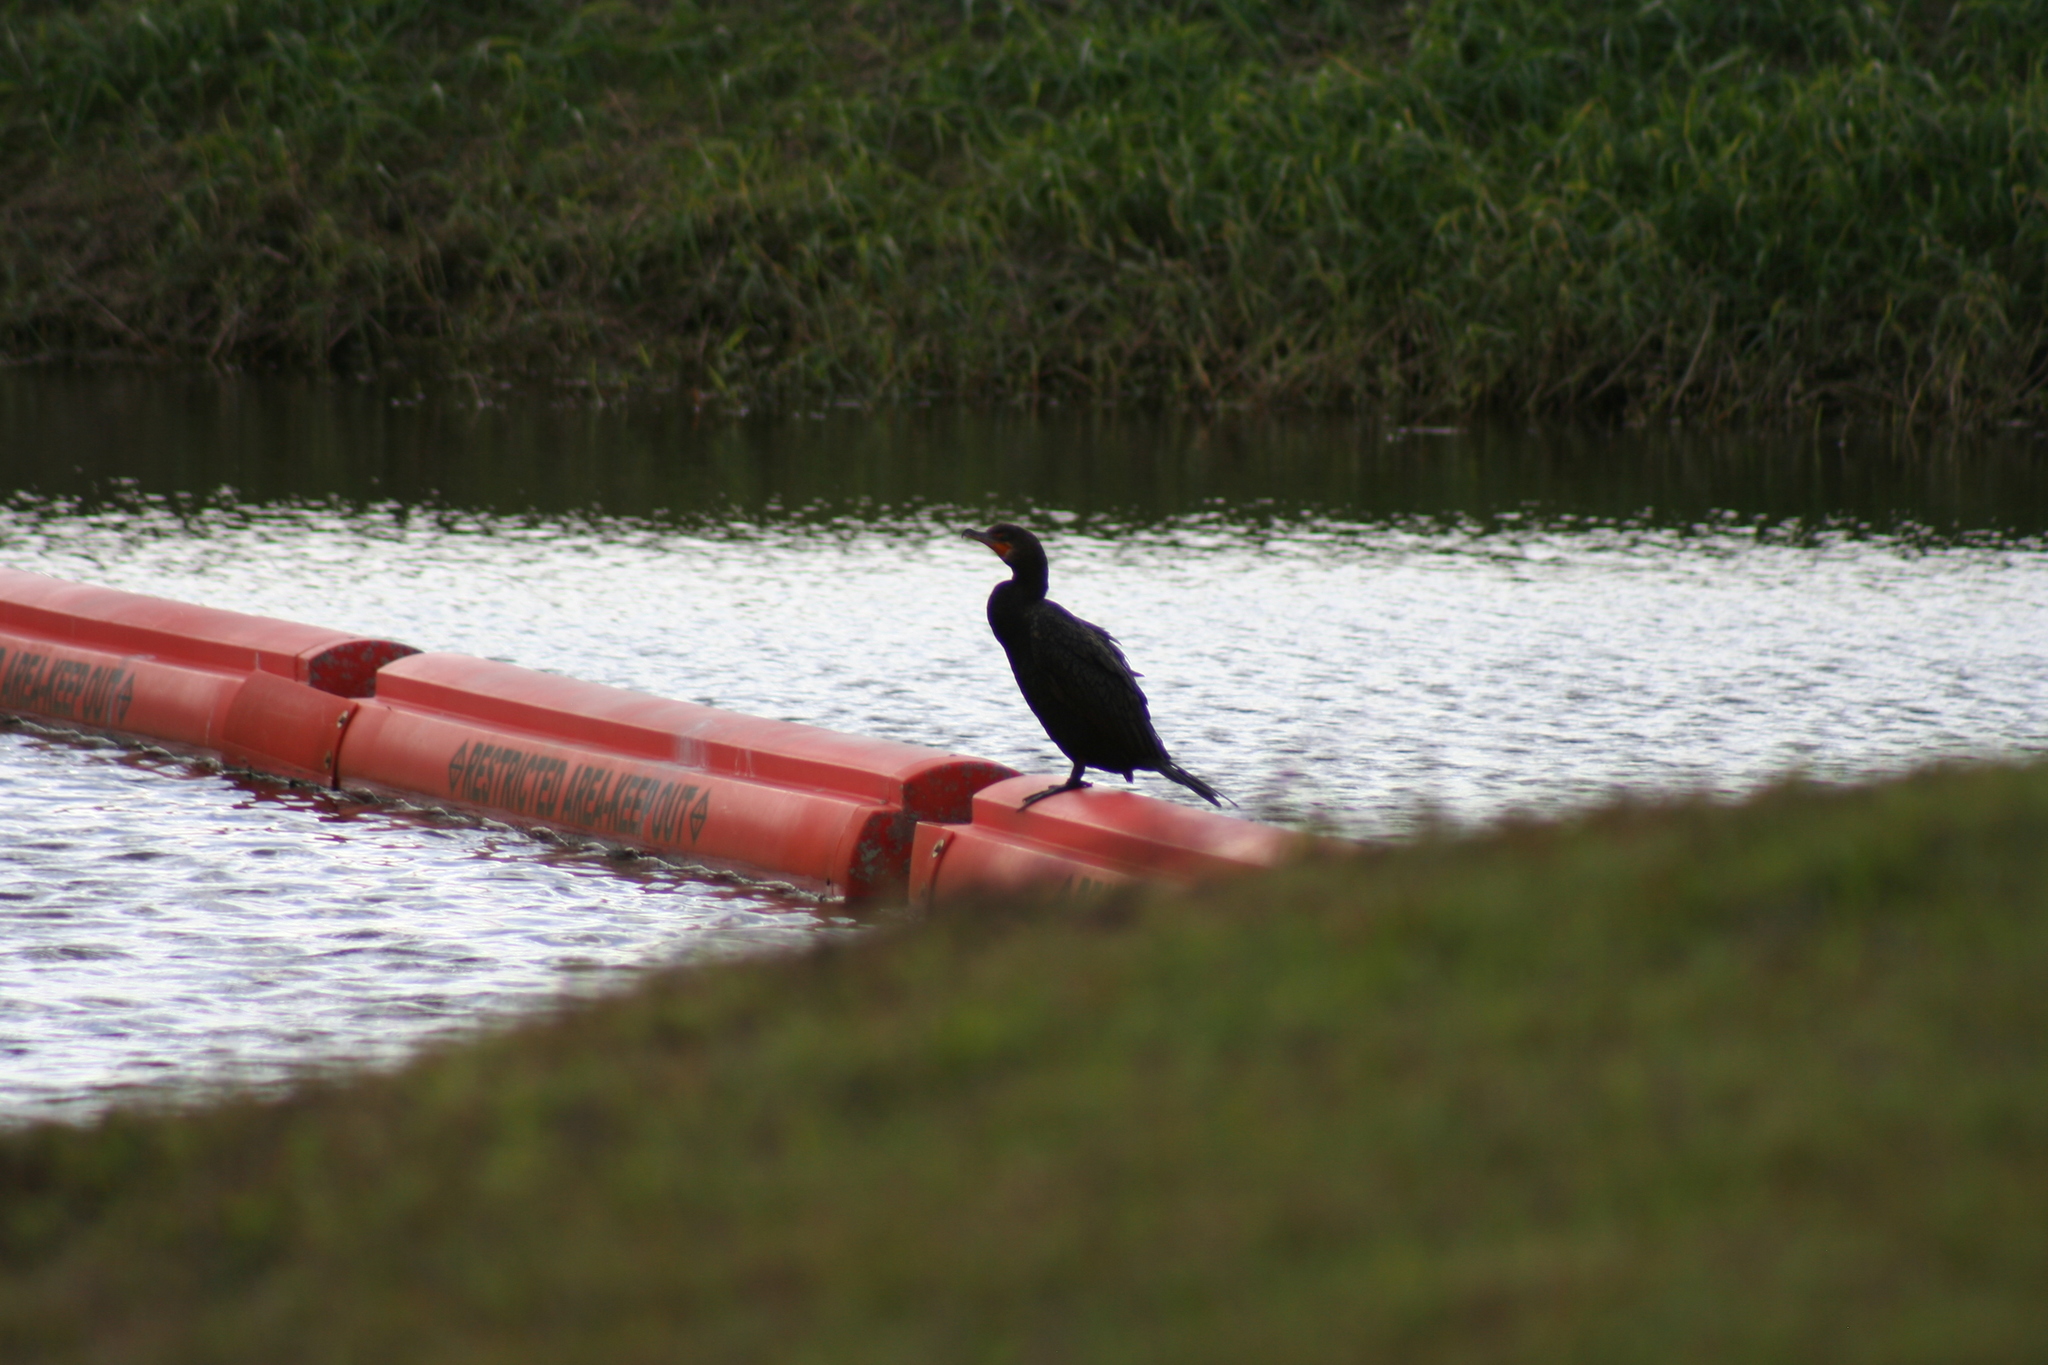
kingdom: Animalia
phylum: Chordata
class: Aves
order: Suliformes
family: Phalacrocoracidae
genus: Phalacrocorax
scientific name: Phalacrocorax auritus
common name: Double-crested cormorant
